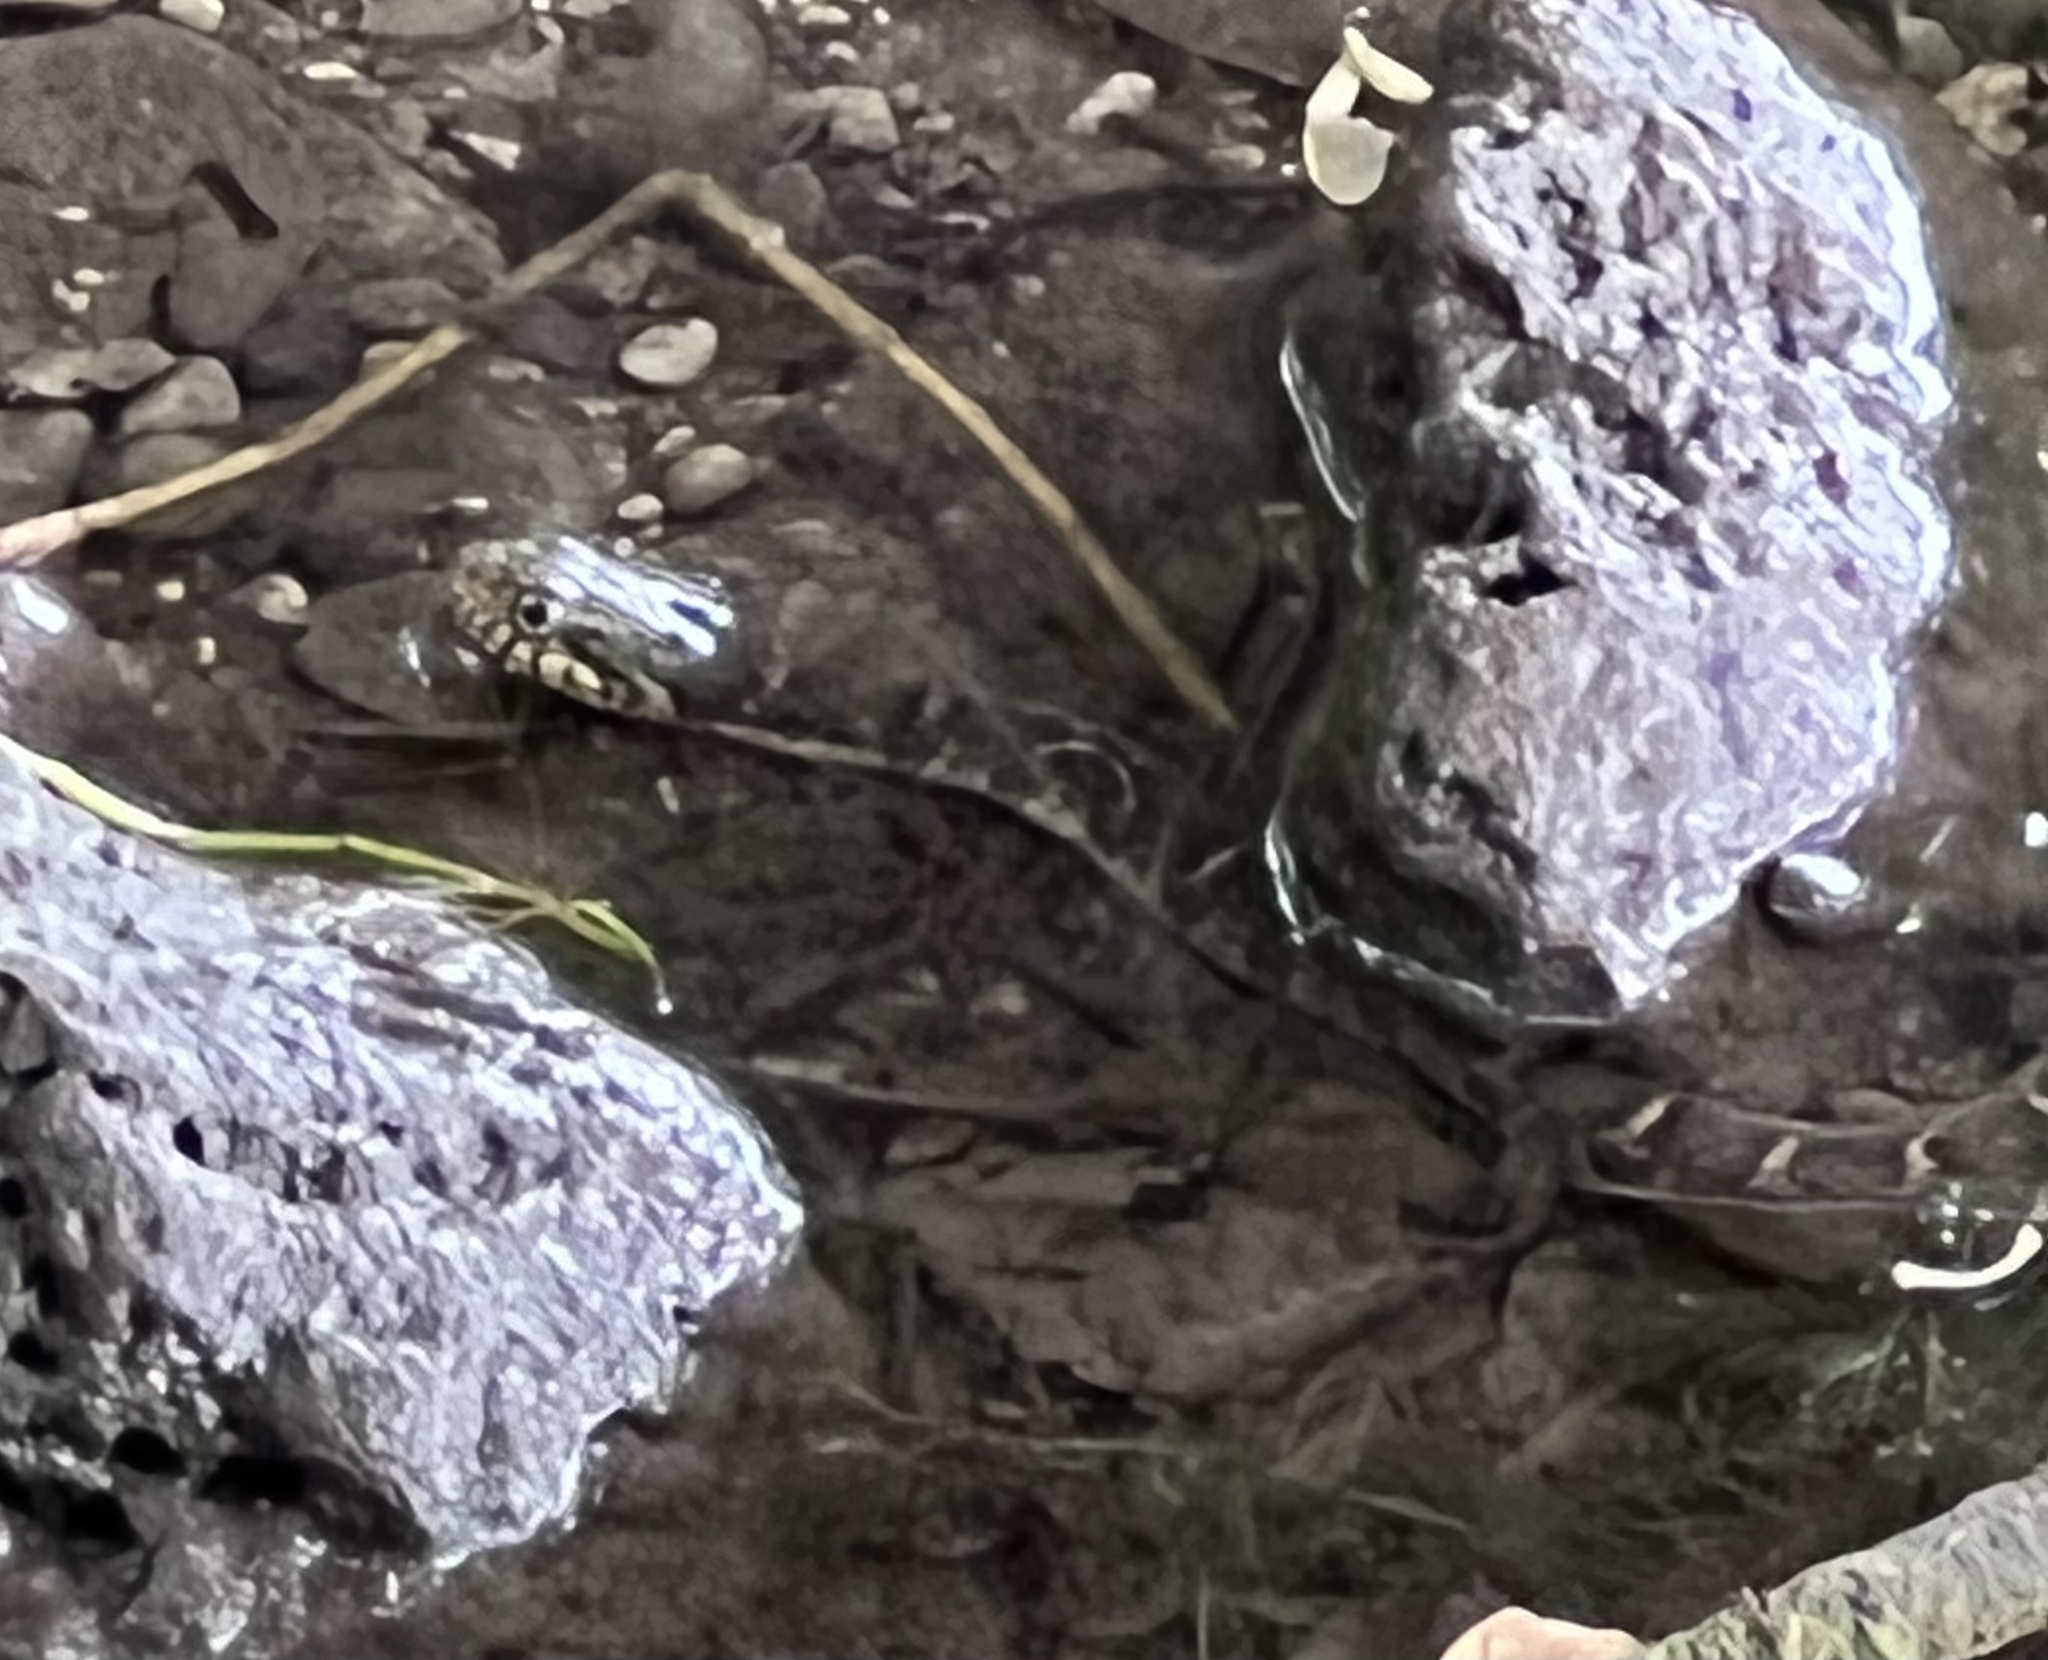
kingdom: Animalia
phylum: Chordata
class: Squamata
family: Colubridae
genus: Nerodia
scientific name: Nerodia erythrogaster
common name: Plainbelly water snake
